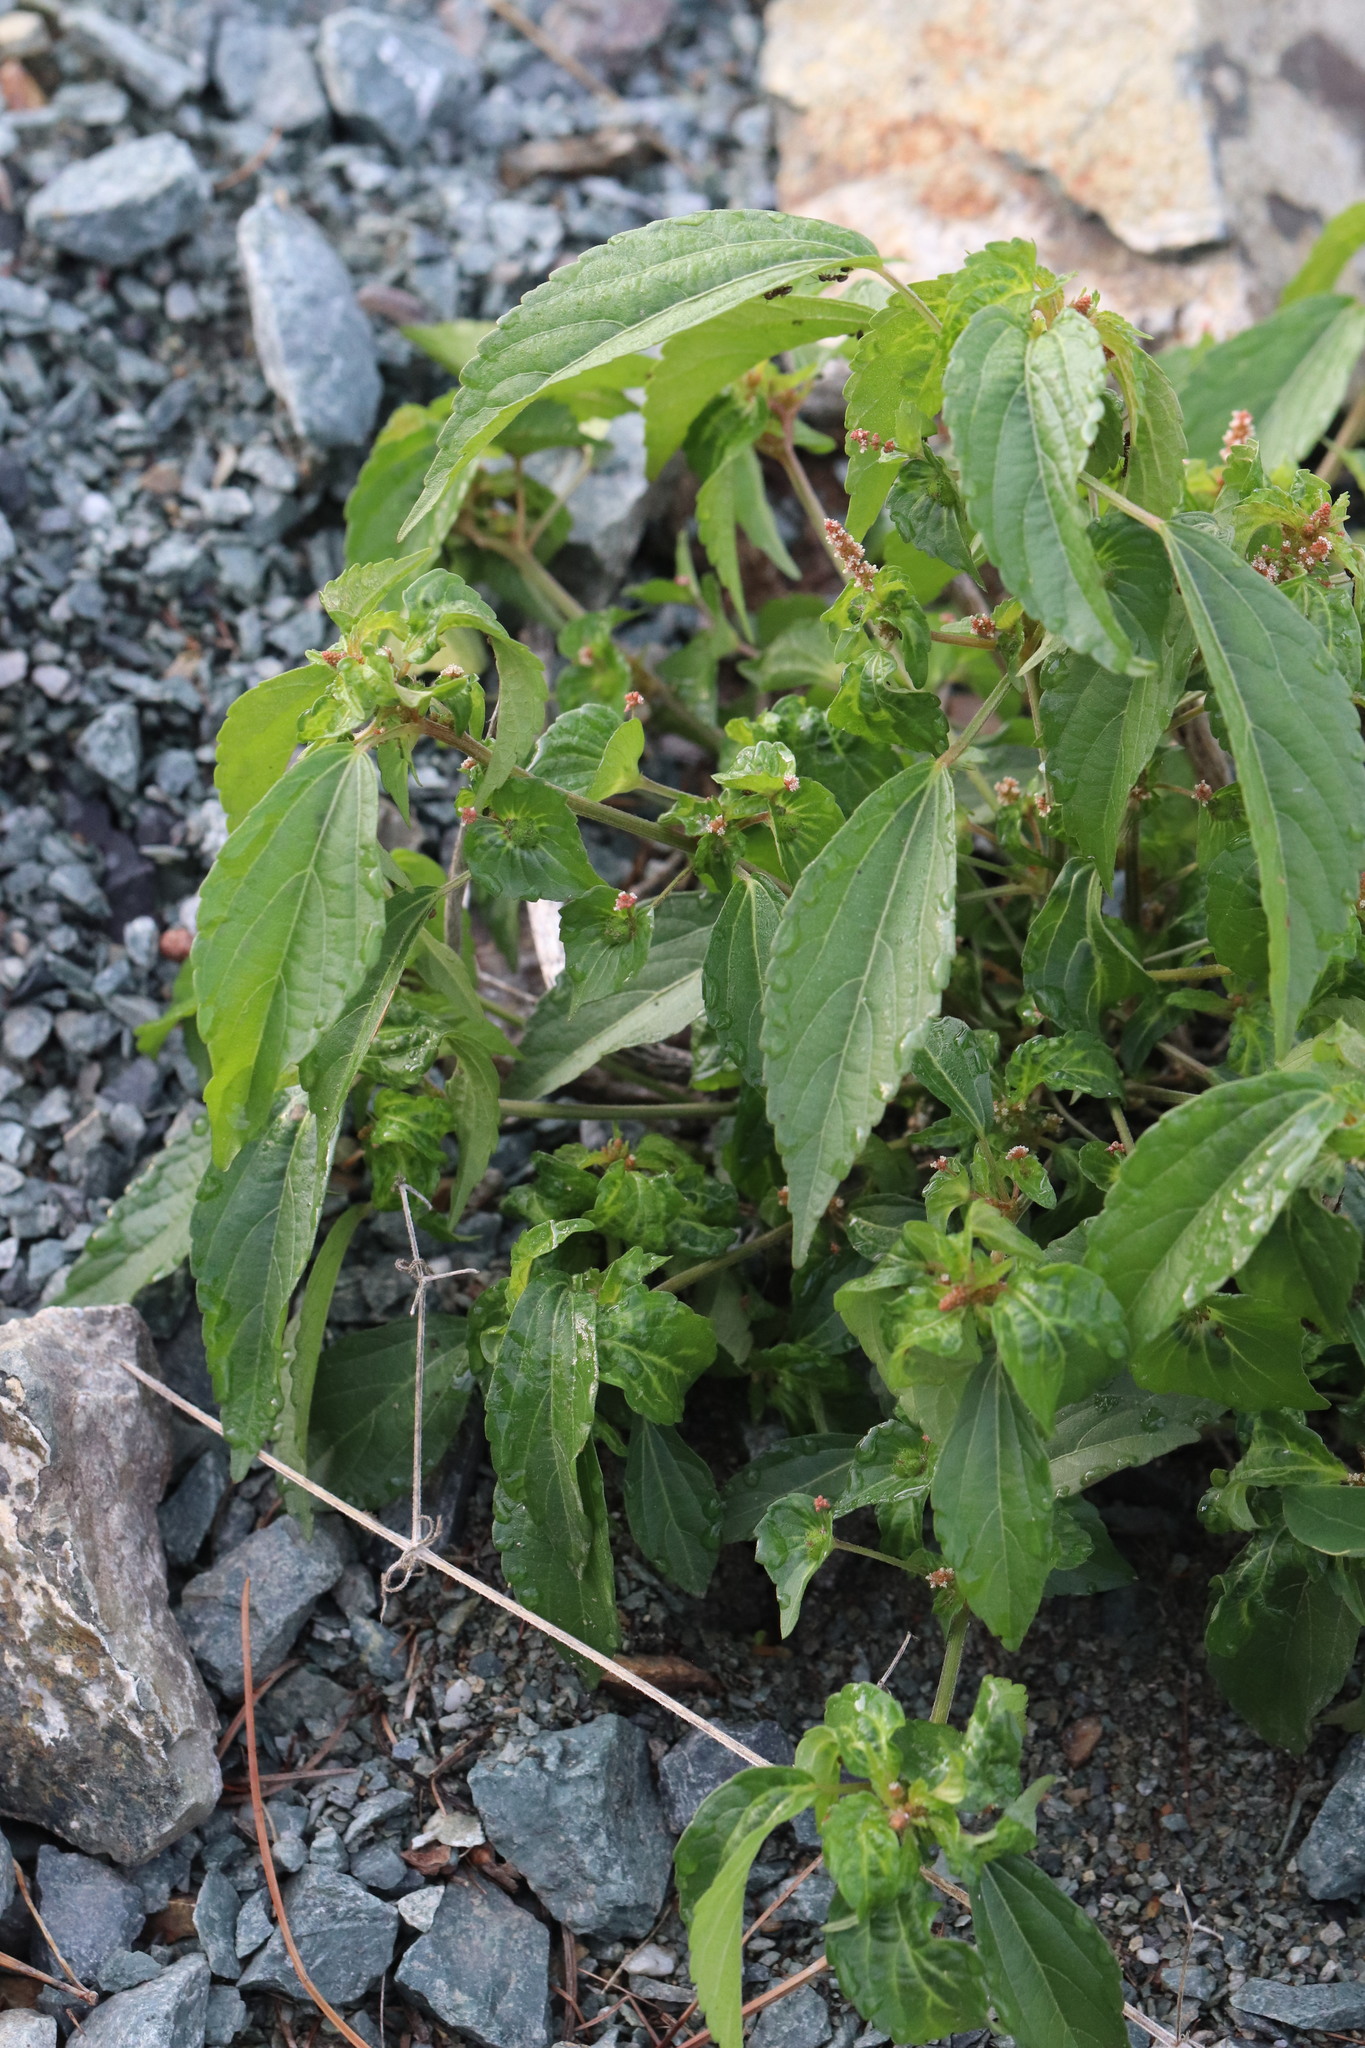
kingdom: Plantae
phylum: Tracheophyta
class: Magnoliopsida
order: Malpighiales
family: Euphorbiaceae
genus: Acalypha
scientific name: Acalypha australis
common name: Asian copperleaf
